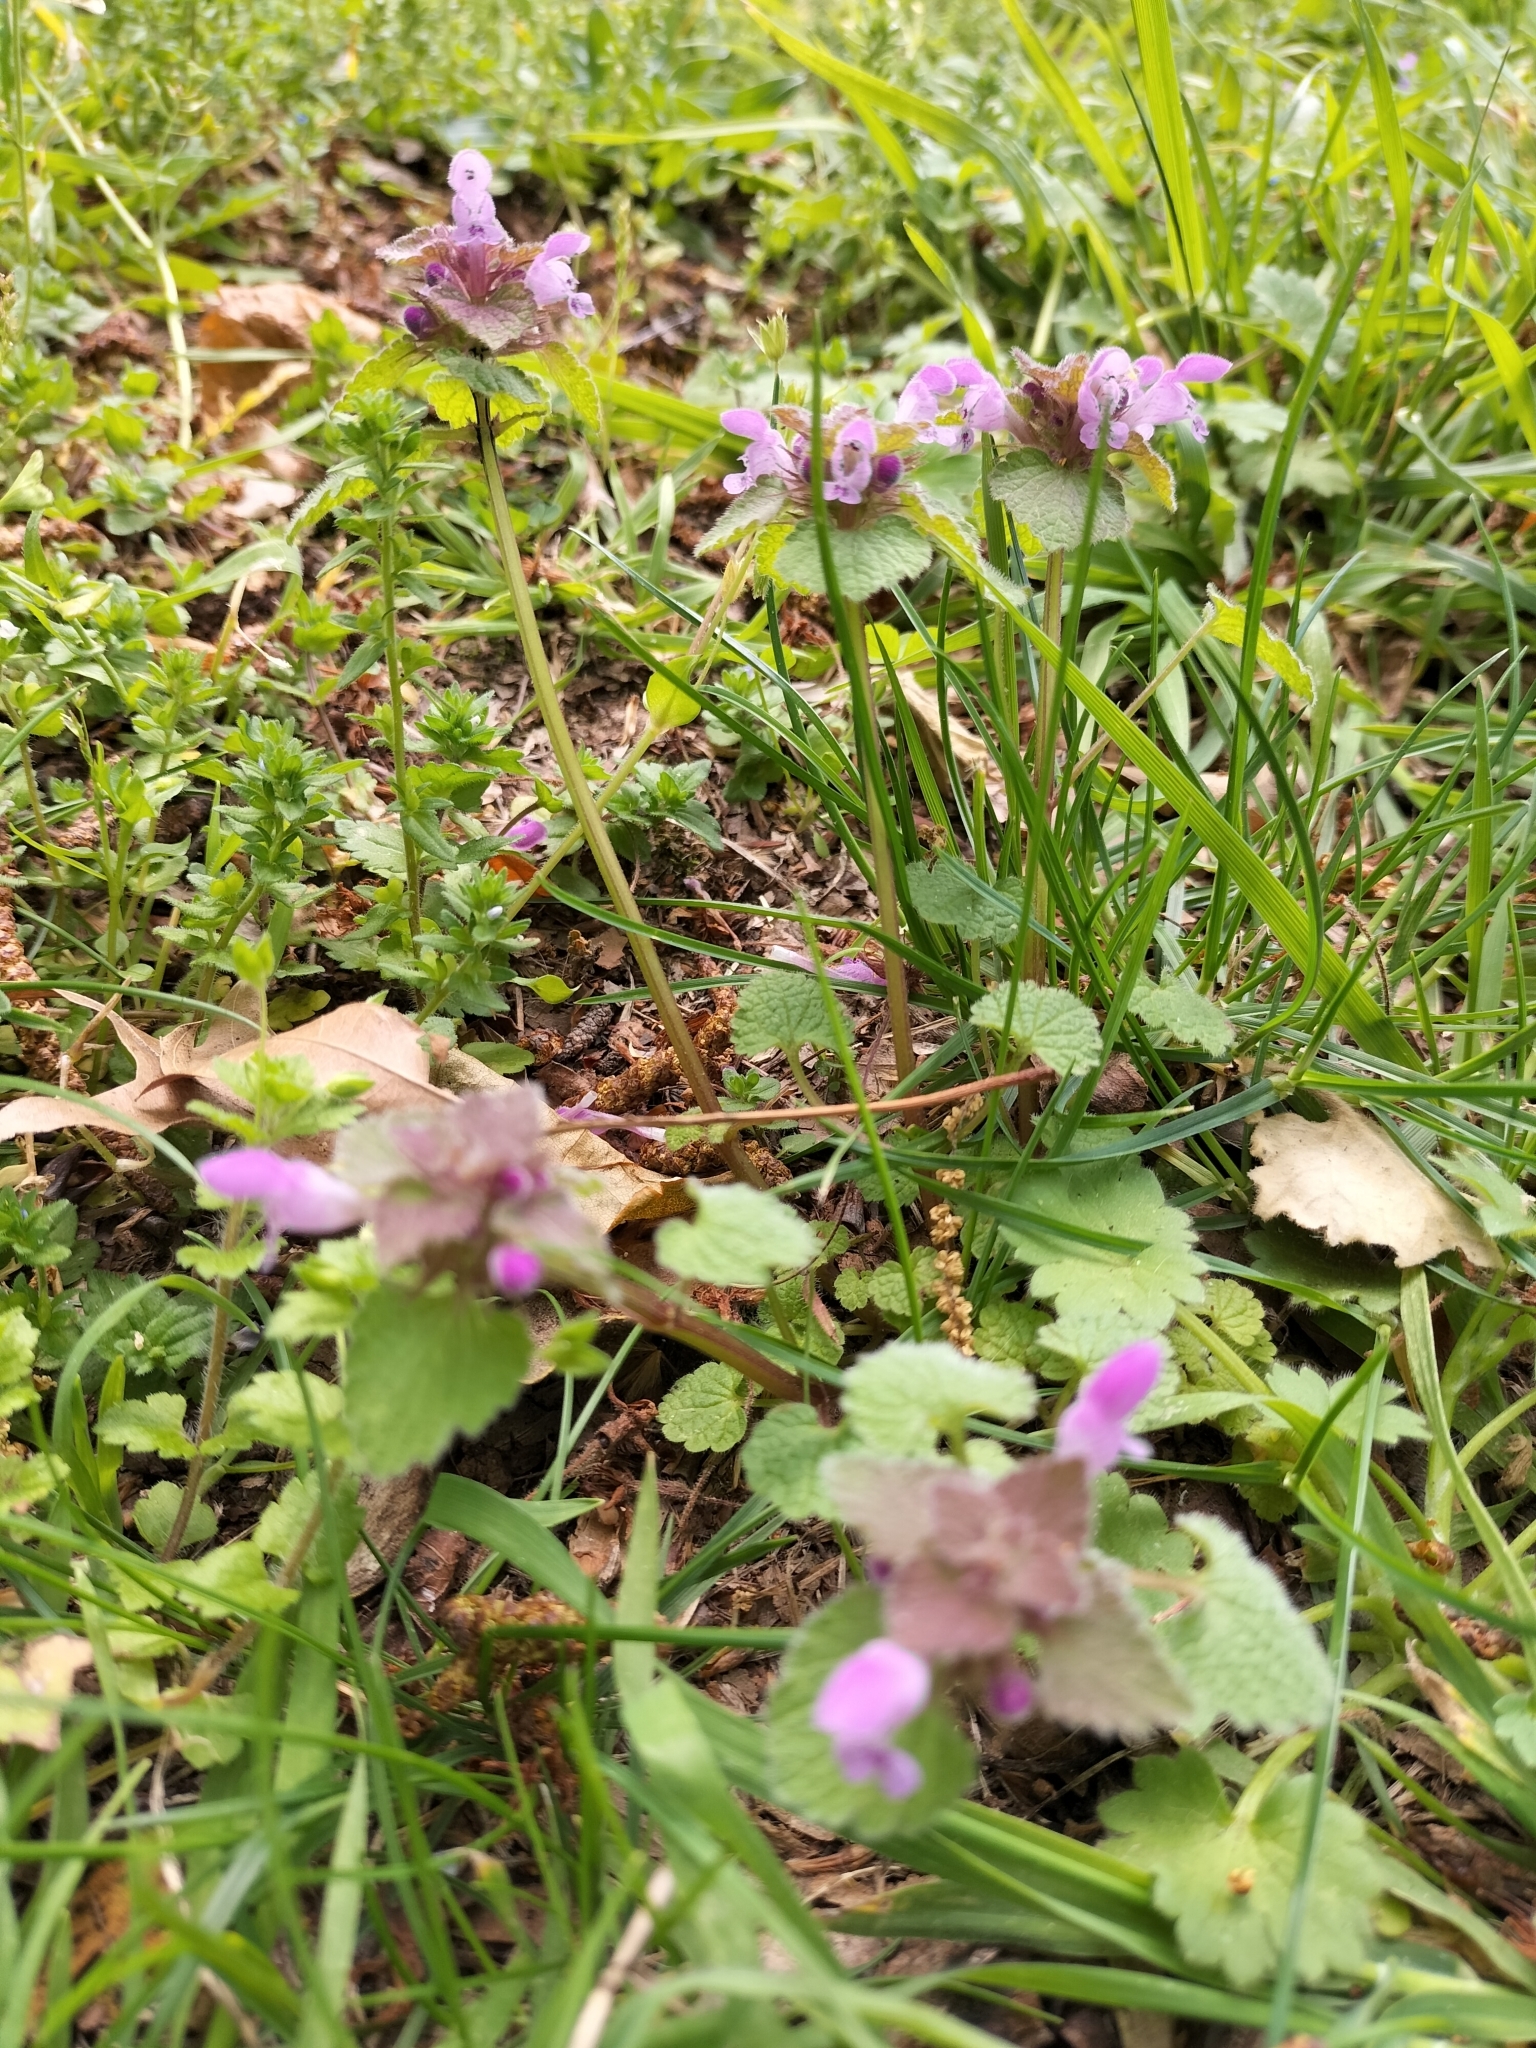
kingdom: Plantae
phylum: Tracheophyta
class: Magnoliopsida
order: Lamiales
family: Lamiaceae
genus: Lamium
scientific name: Lamium purpureum
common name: Red dead-nettle
